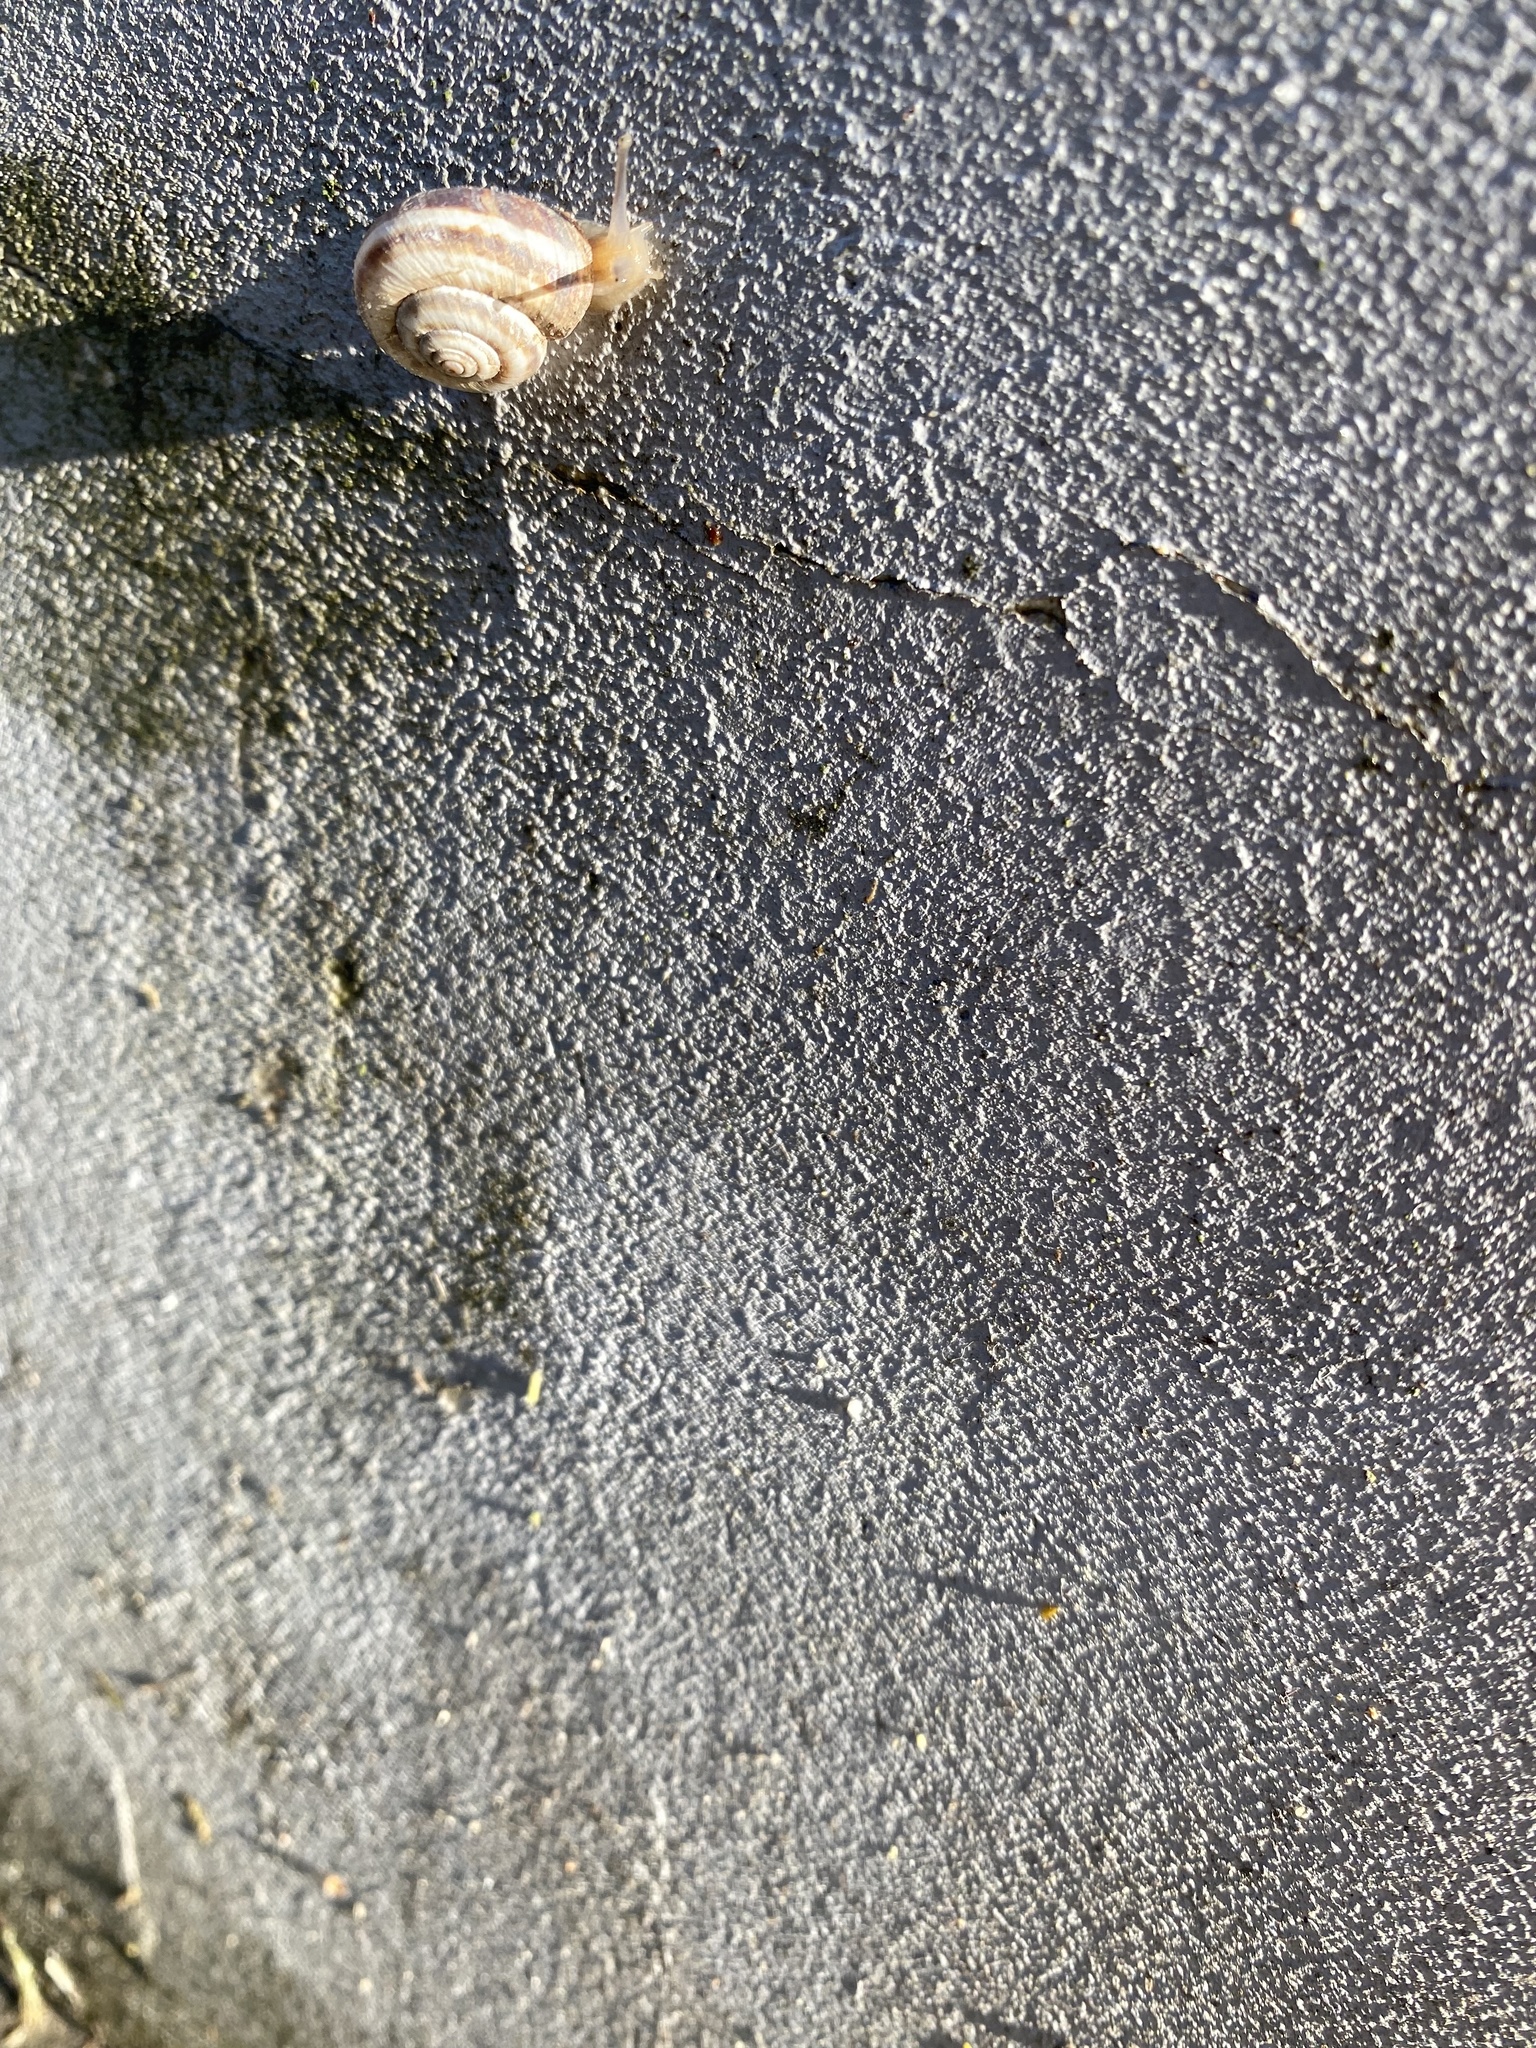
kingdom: Animalia
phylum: Mollusca
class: Gastropoda
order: Stylommatophora
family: Geomitridae
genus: Xeropicta
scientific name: Xeropicta derbentina
